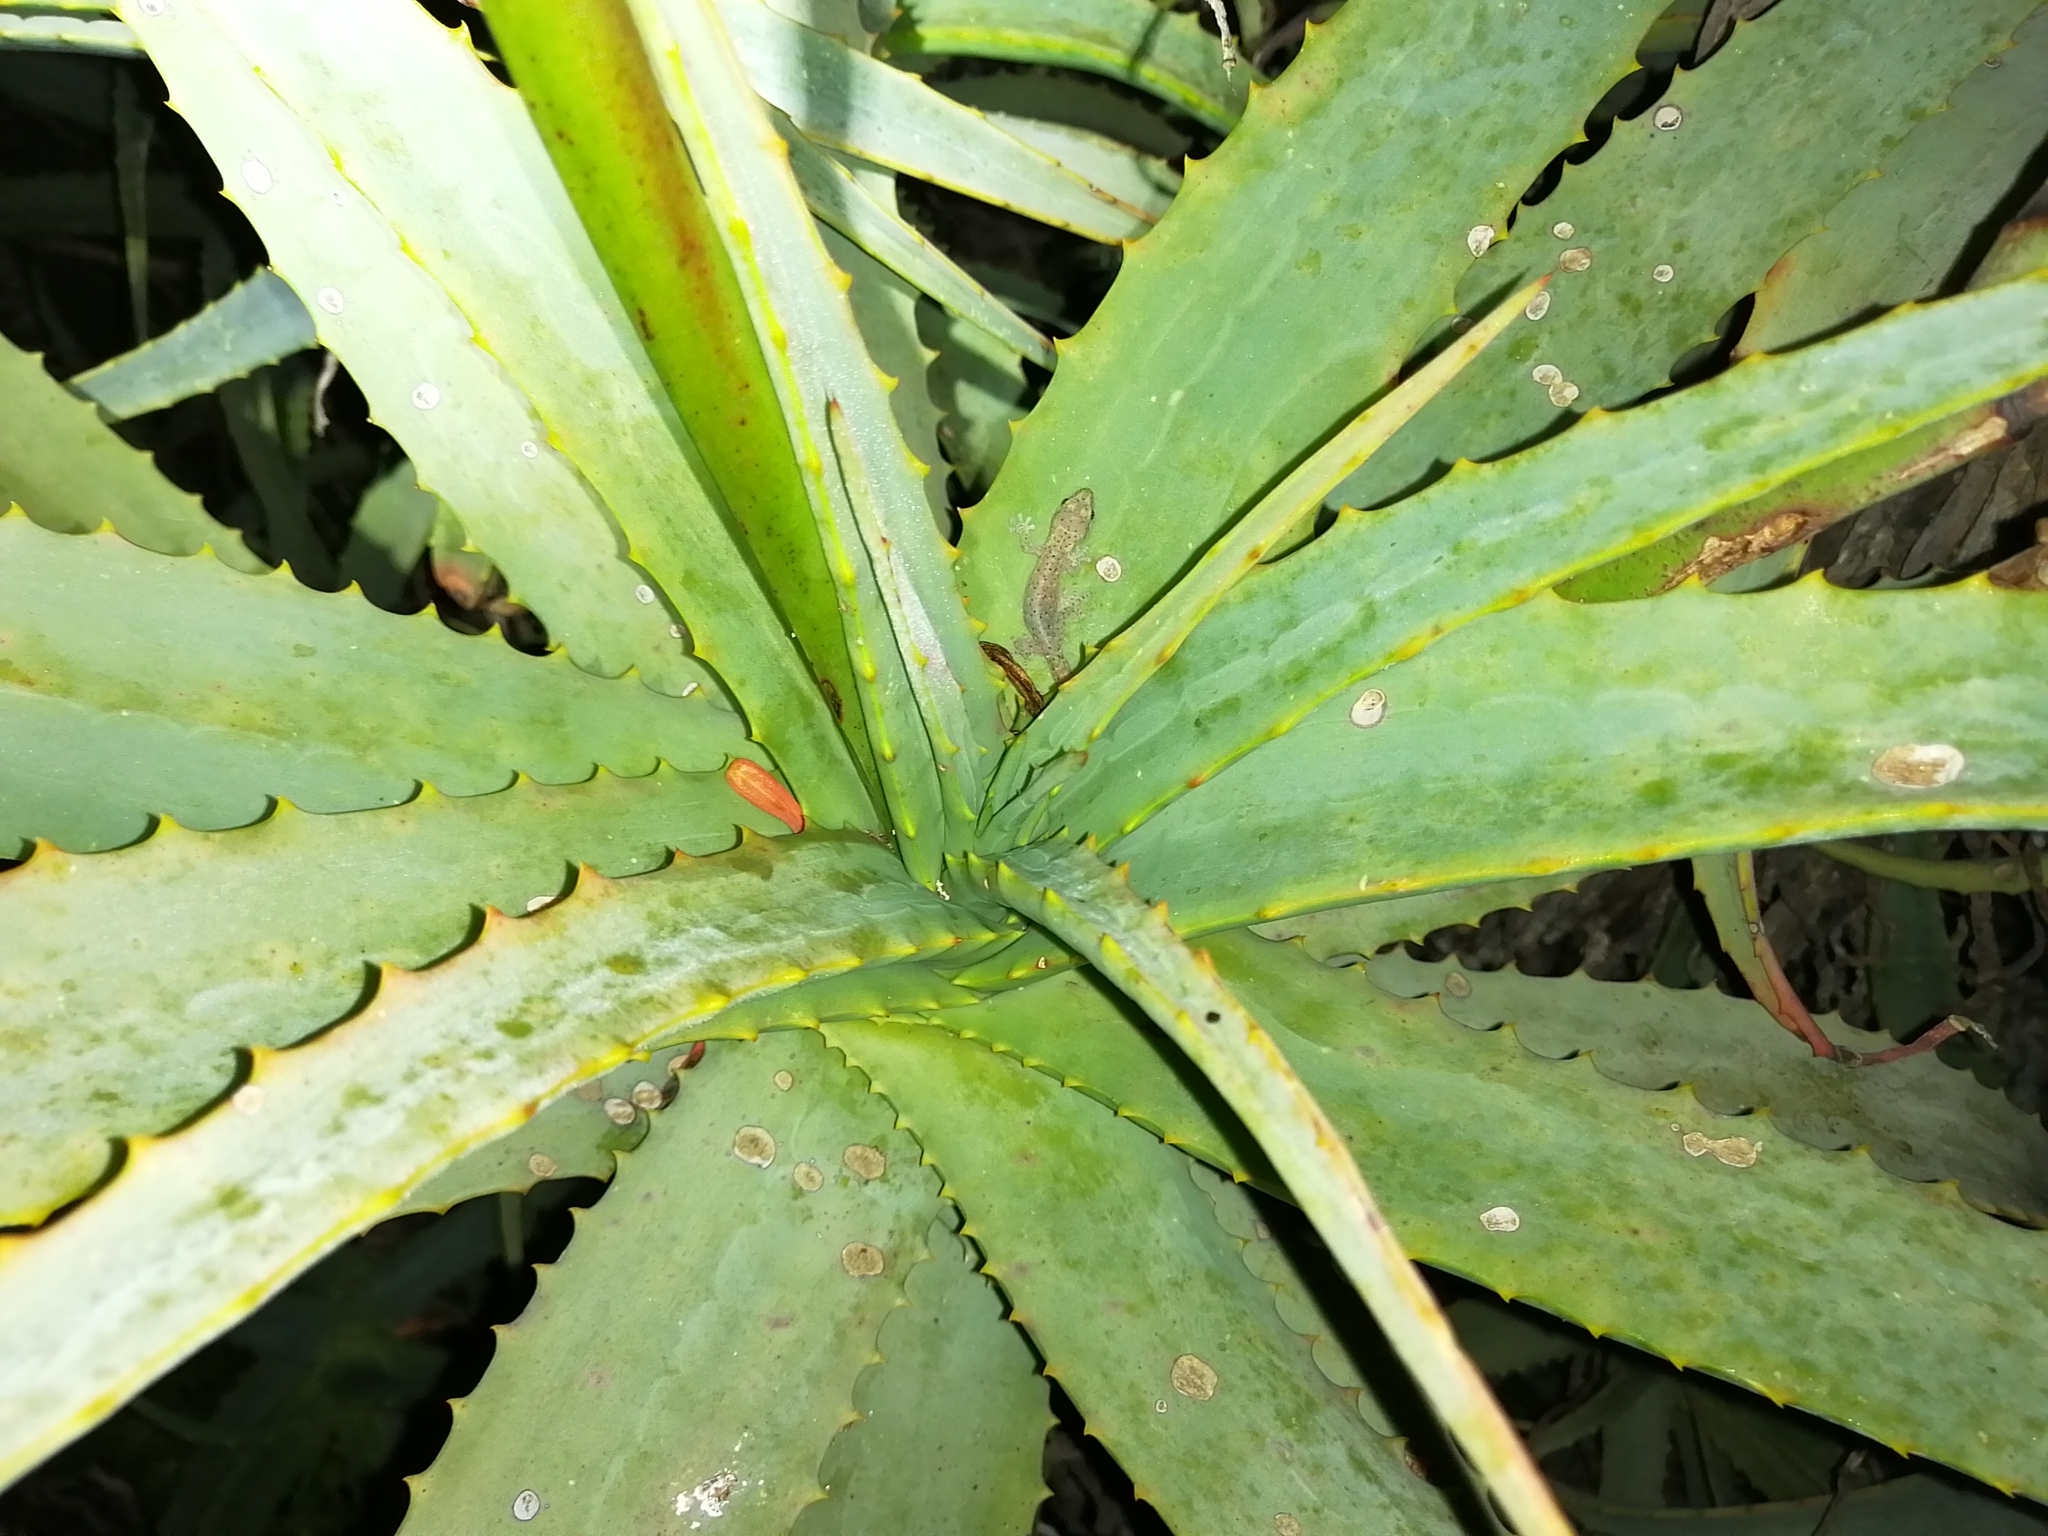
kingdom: Animalia
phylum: Chordata
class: Squamata
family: Gekkonidae
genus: Afrogecko
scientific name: Afrogecko porphyreus
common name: Marbled leaf-toed gecko
